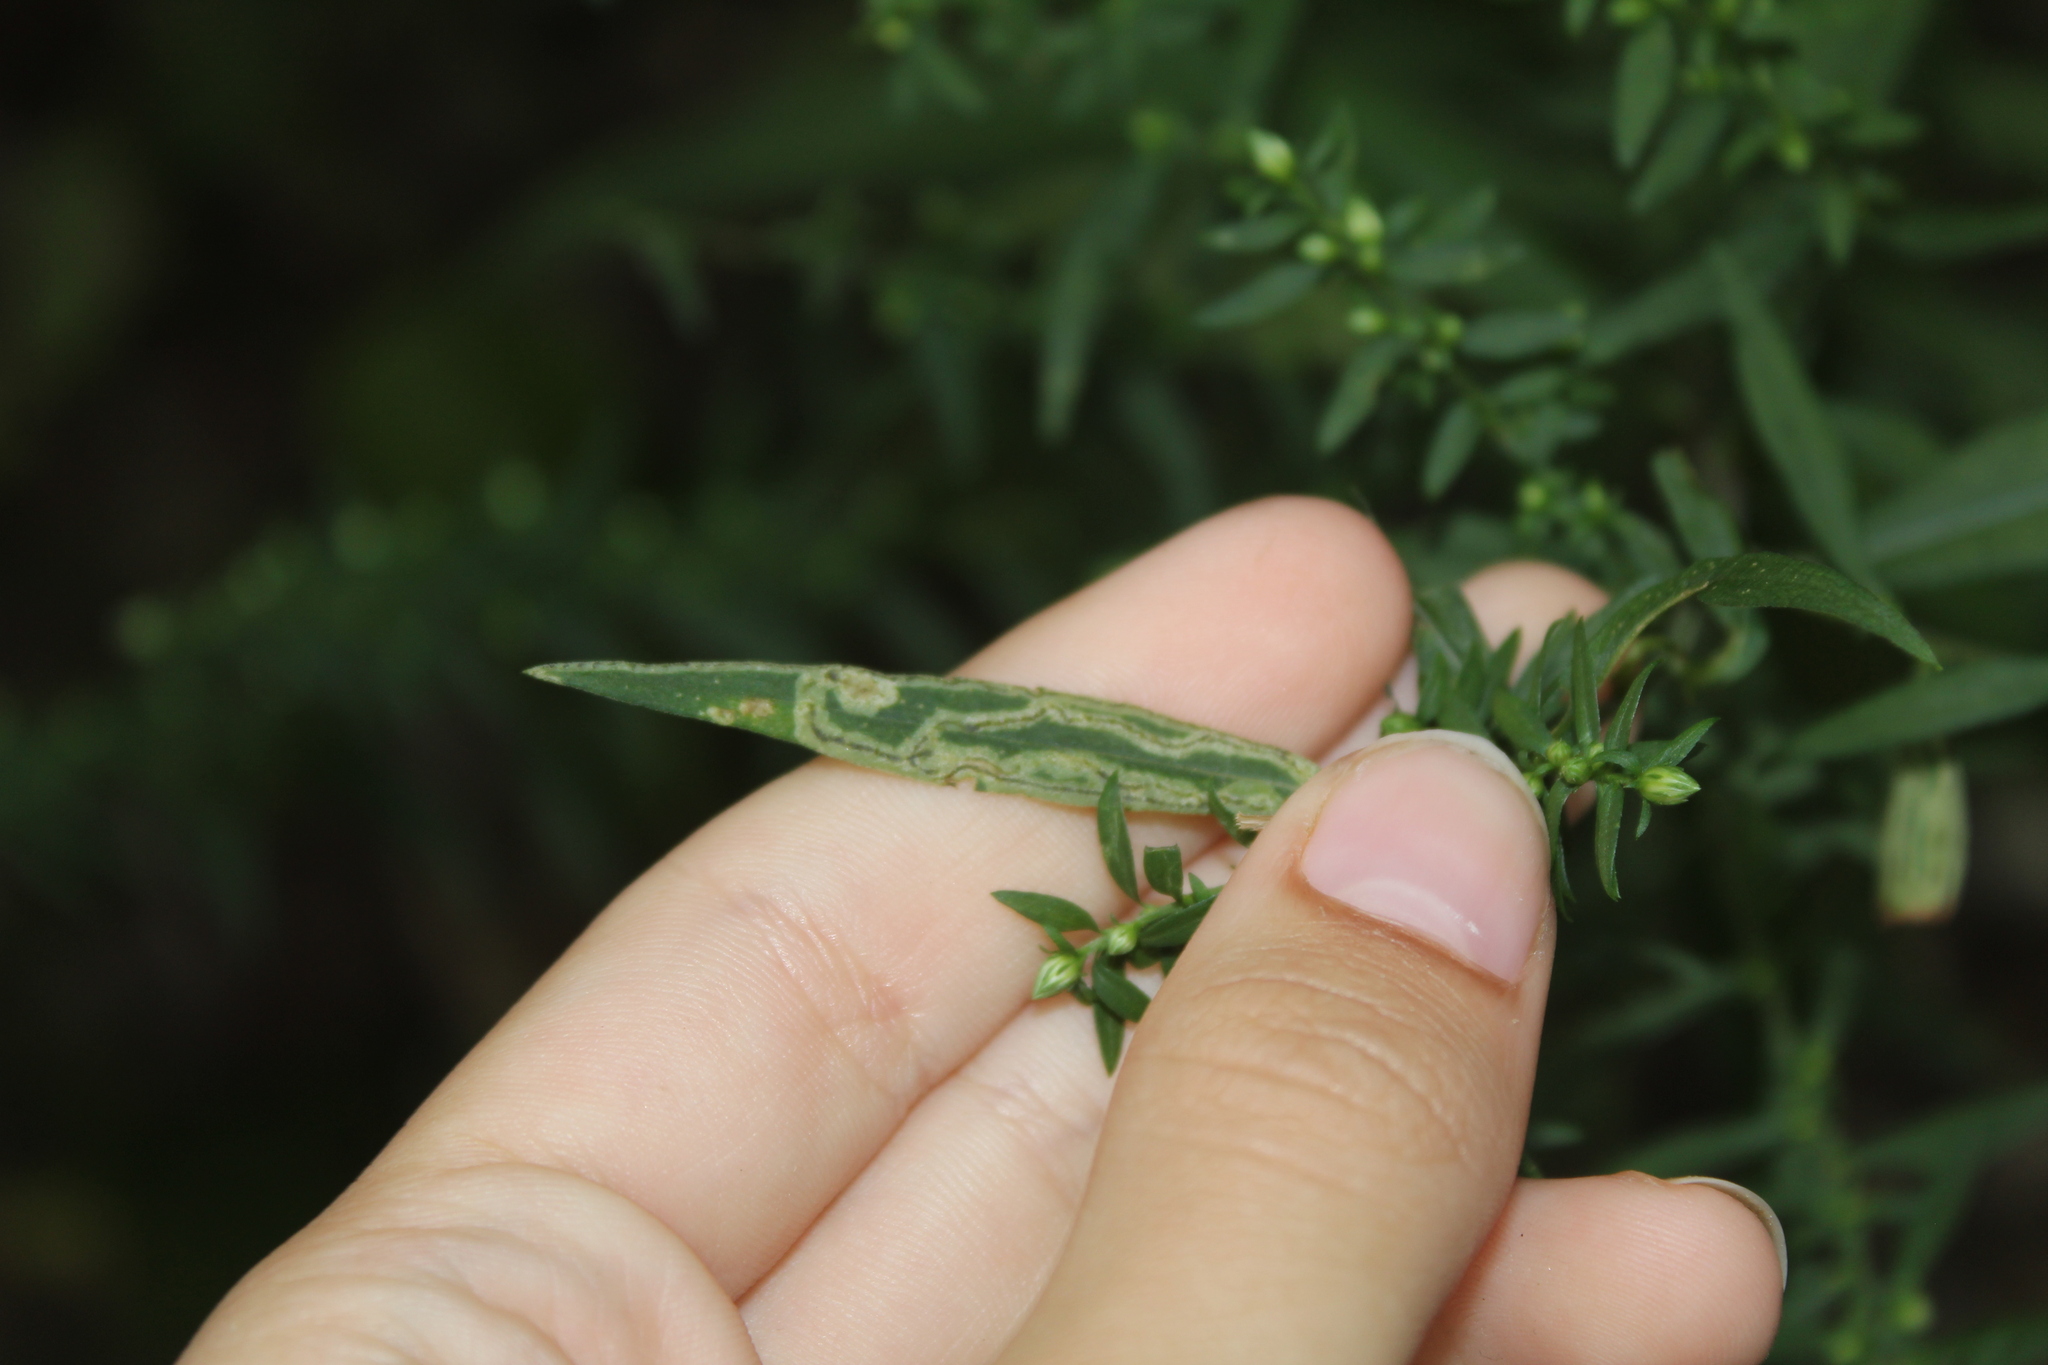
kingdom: Animalia
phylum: Arthropoda
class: Insecta
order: Diptera
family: Agromyzidae
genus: Liriomyza
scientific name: Liriomyza eupatorii
